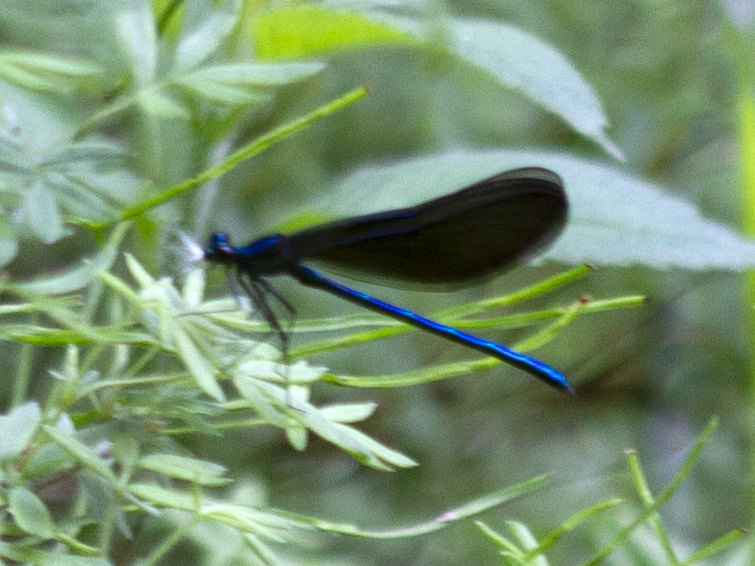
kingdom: Animalia
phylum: Arthropoda
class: Insecta
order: Odonata
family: Calopterygidae
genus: Calopteryx
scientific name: Calopteryx maculata
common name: Ebony jewelwing
